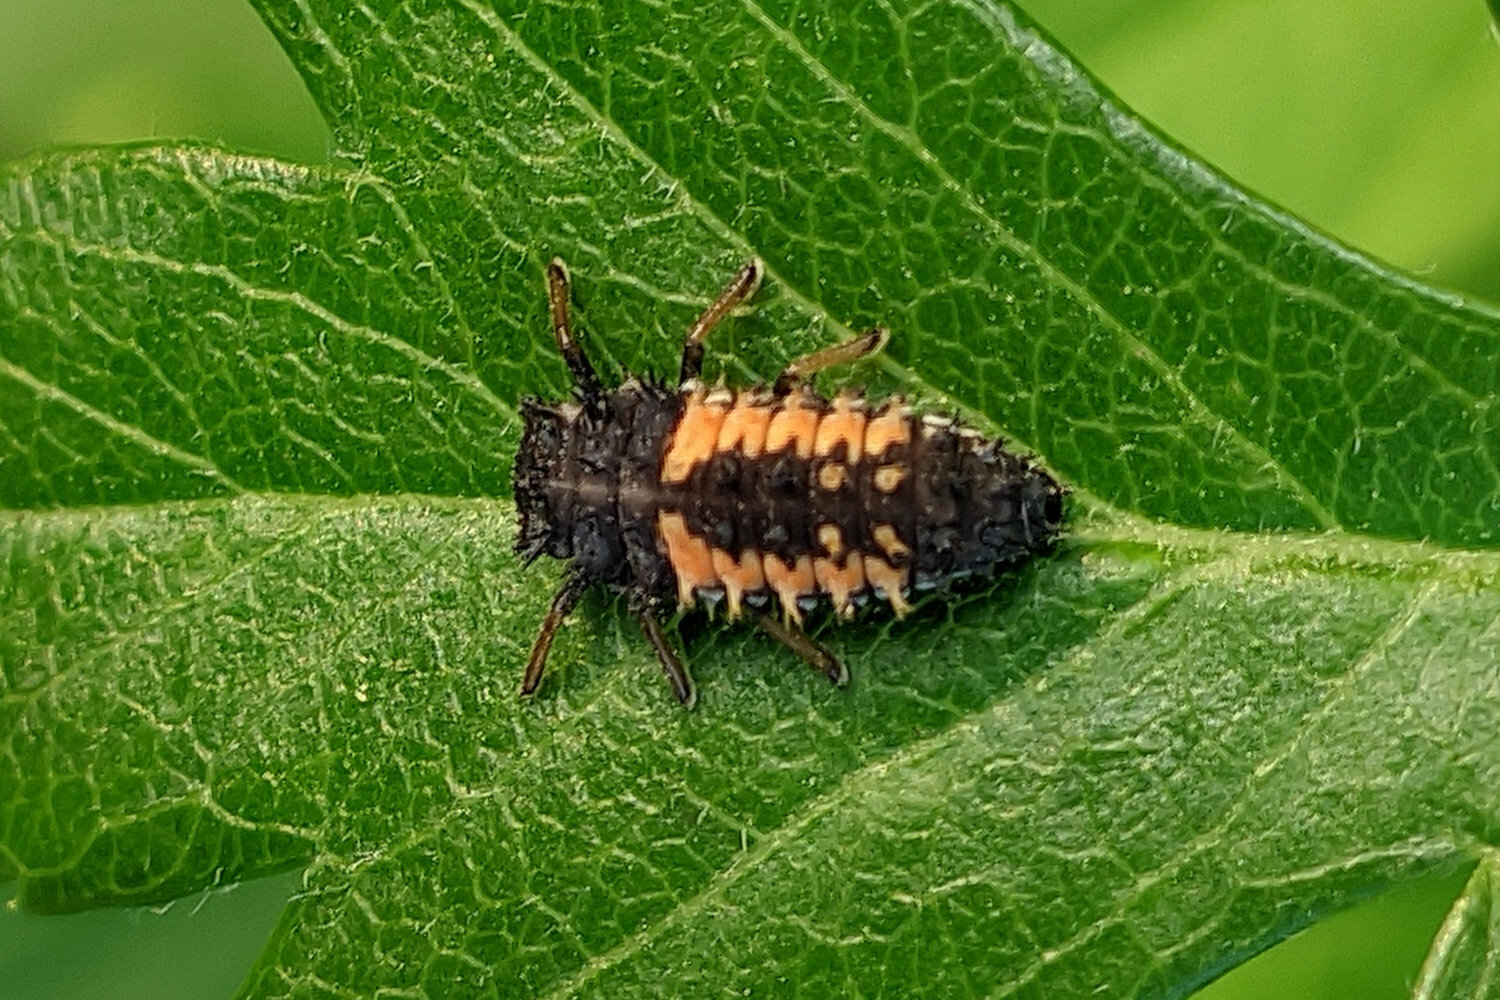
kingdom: Animalia
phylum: Arthropoda
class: Insecta
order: Coleoptera
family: Coccinellidae
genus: Harmonia
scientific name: Harmonia axyridis
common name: Harlequin ladybird
